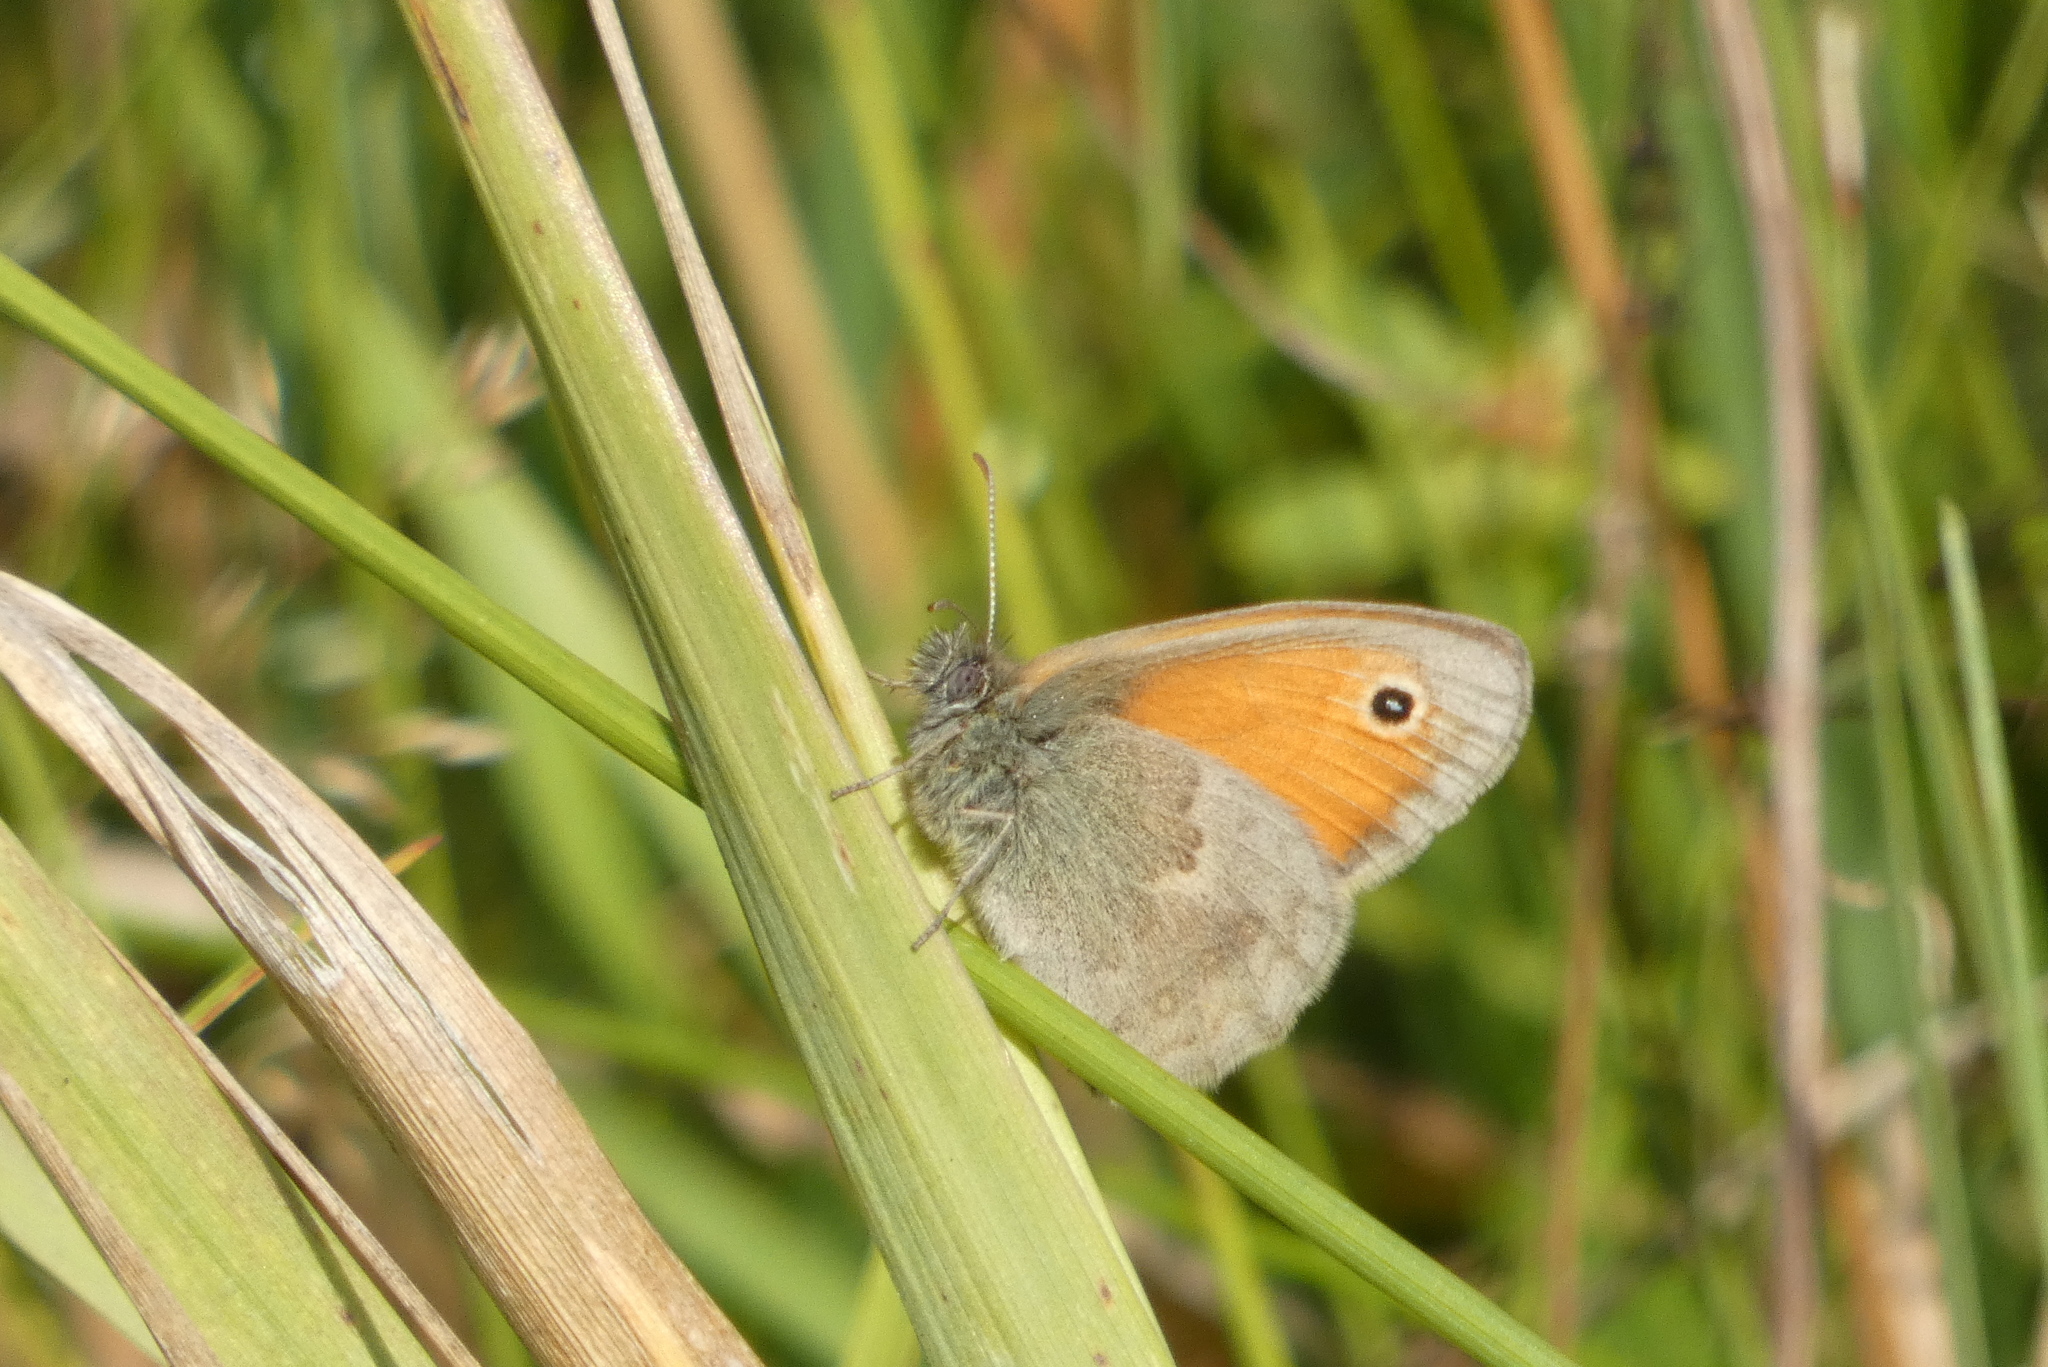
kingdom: Animalia
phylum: Arthropoda
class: Insecta
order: Lepidoptera
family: Nymphalidae
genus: Coenonympha
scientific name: Coenonympha pamphilus
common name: Small heath
